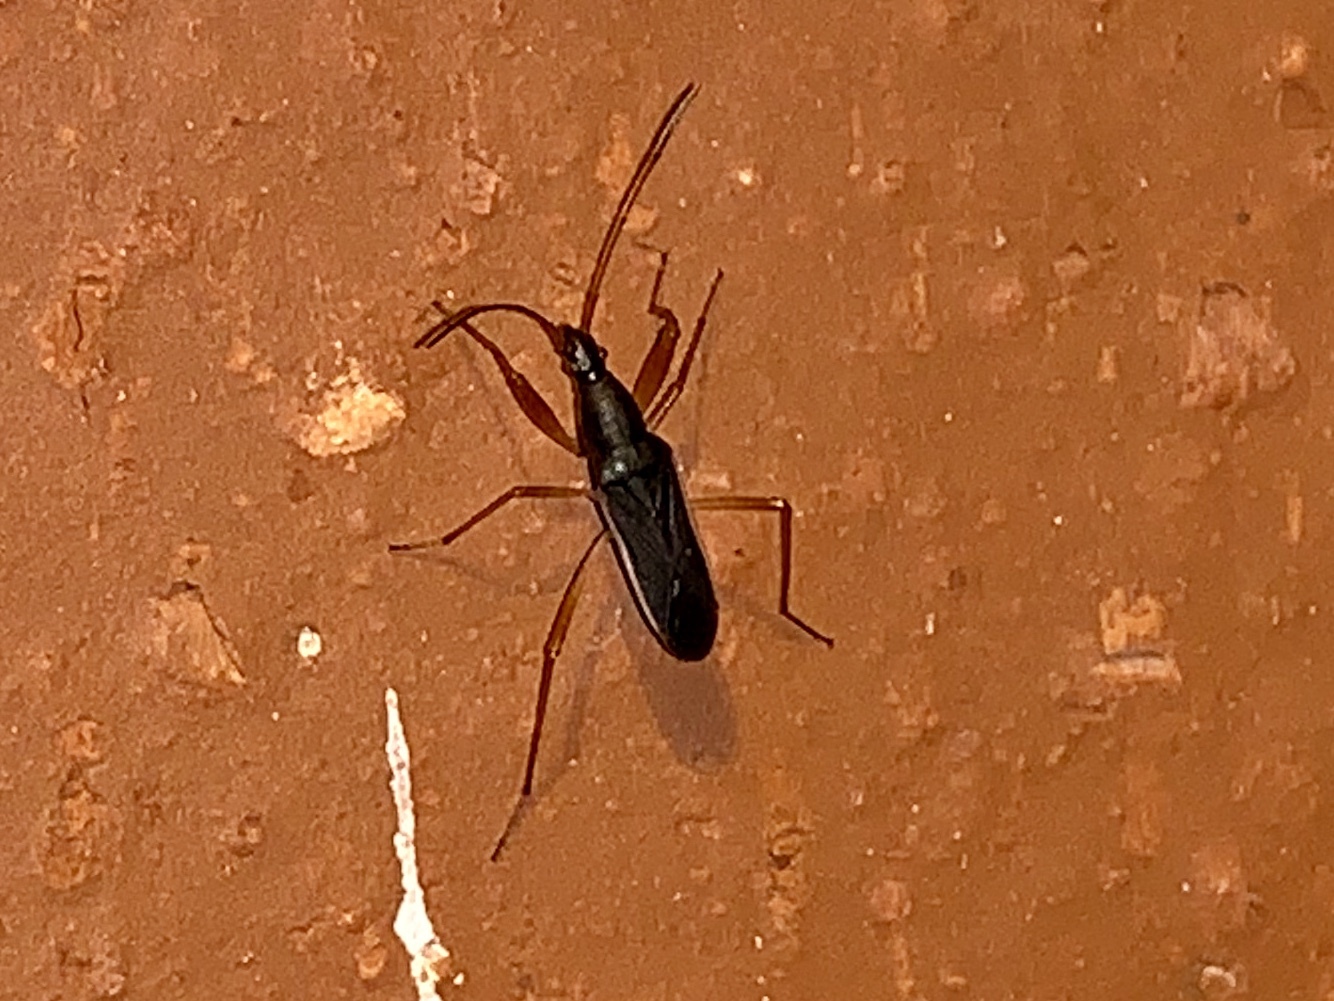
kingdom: Animalia
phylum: Arthropoda
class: Insecta
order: Hemiptera
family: Rhyparochromidae
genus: Cnemodus
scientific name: Cnemodus mavortius
